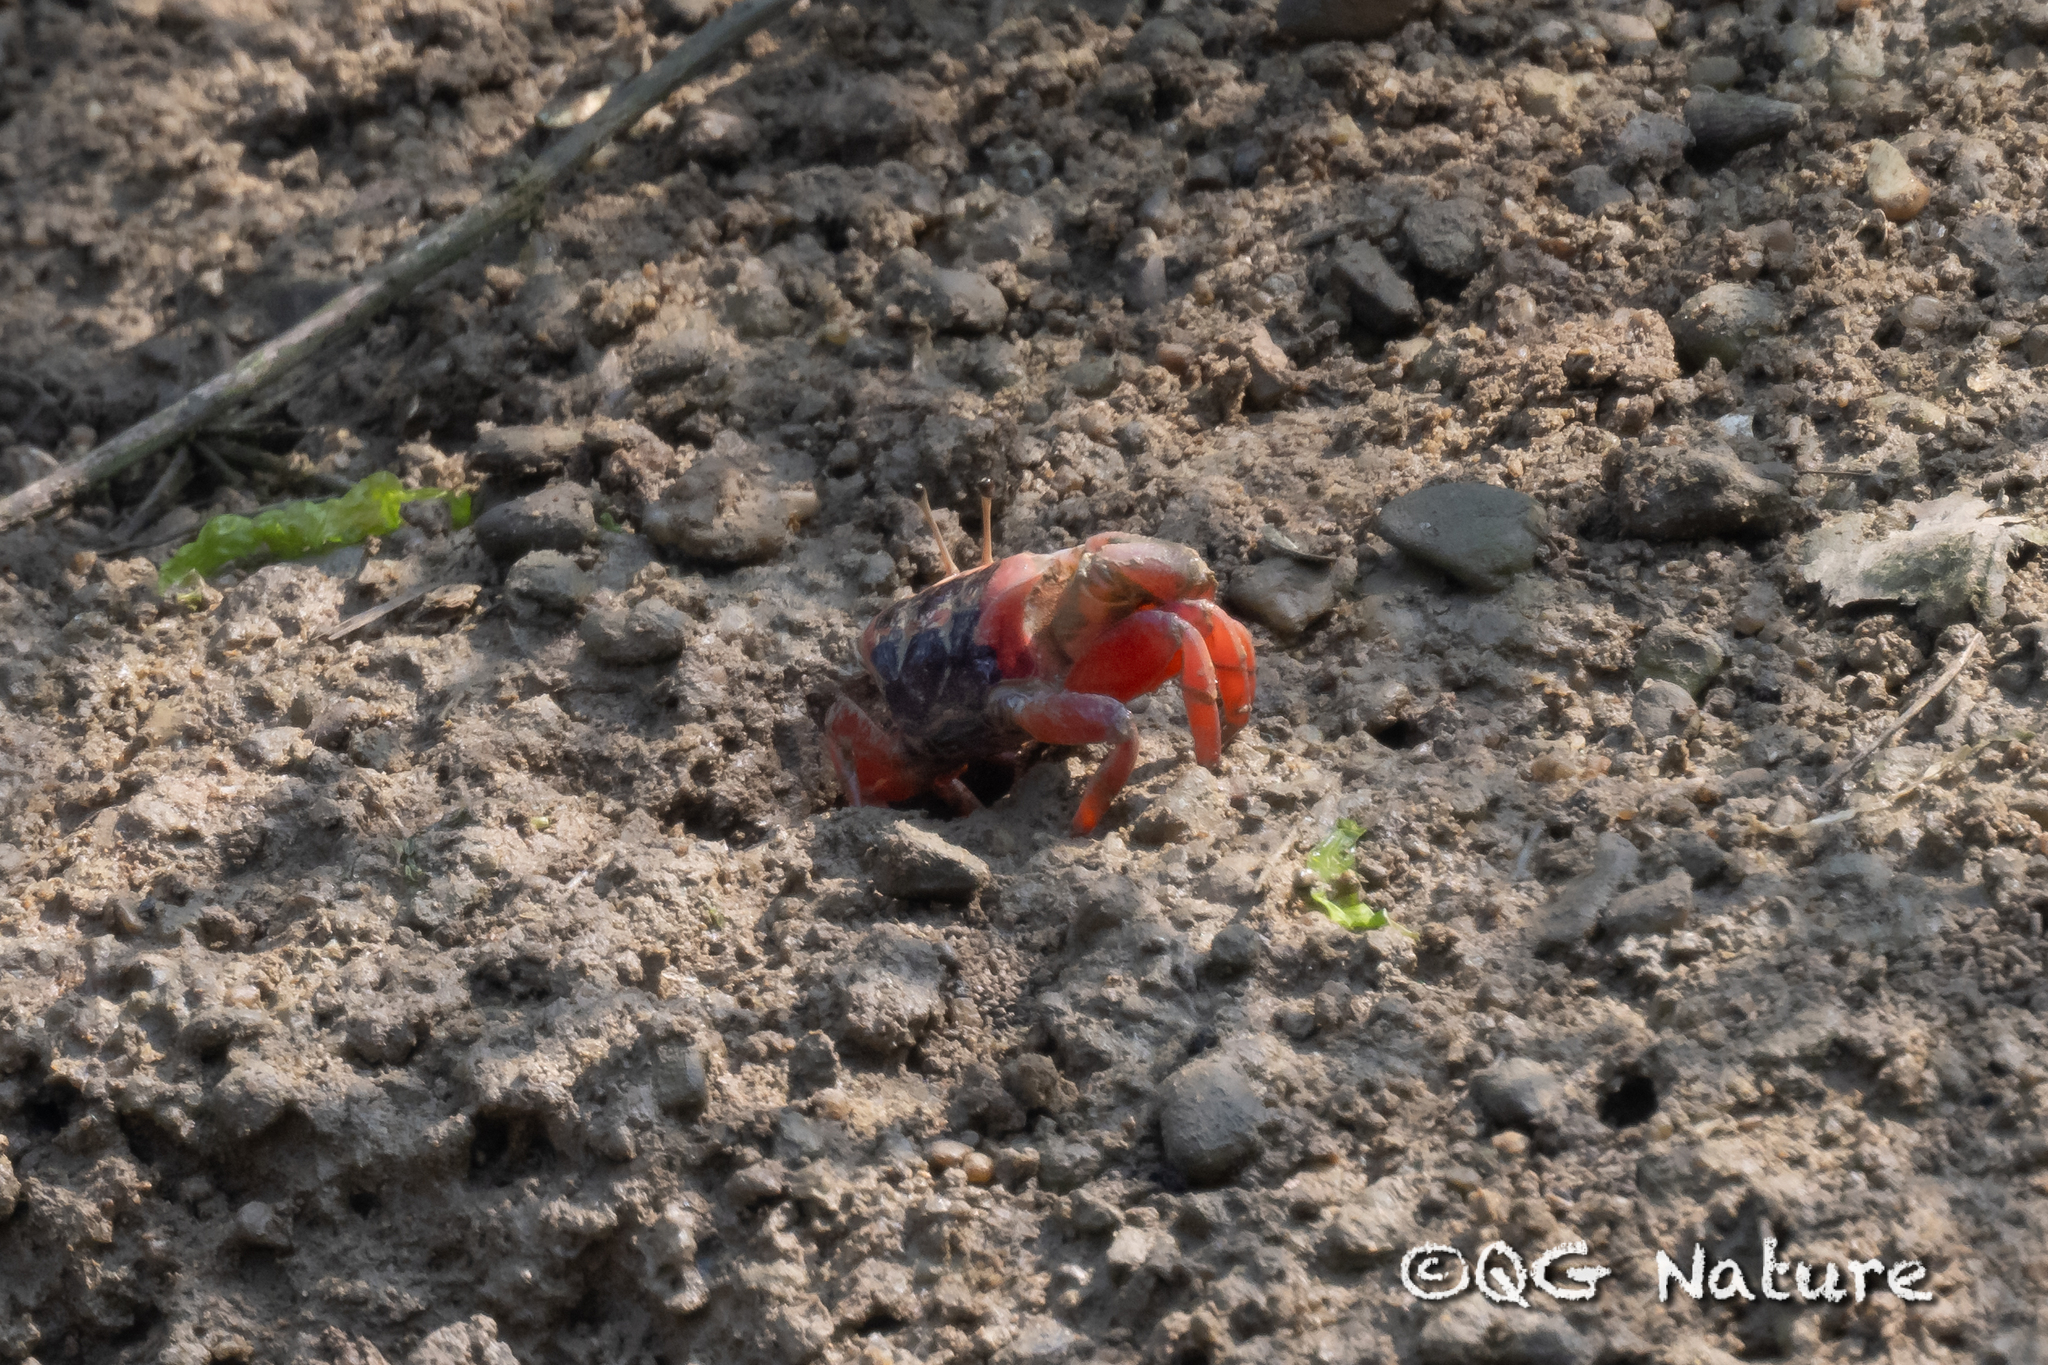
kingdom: Animalia
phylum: Arthropoda
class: Malacostraca
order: Decapoda
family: Ocypodidae
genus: Tubuca
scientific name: Tubuca arcuata
